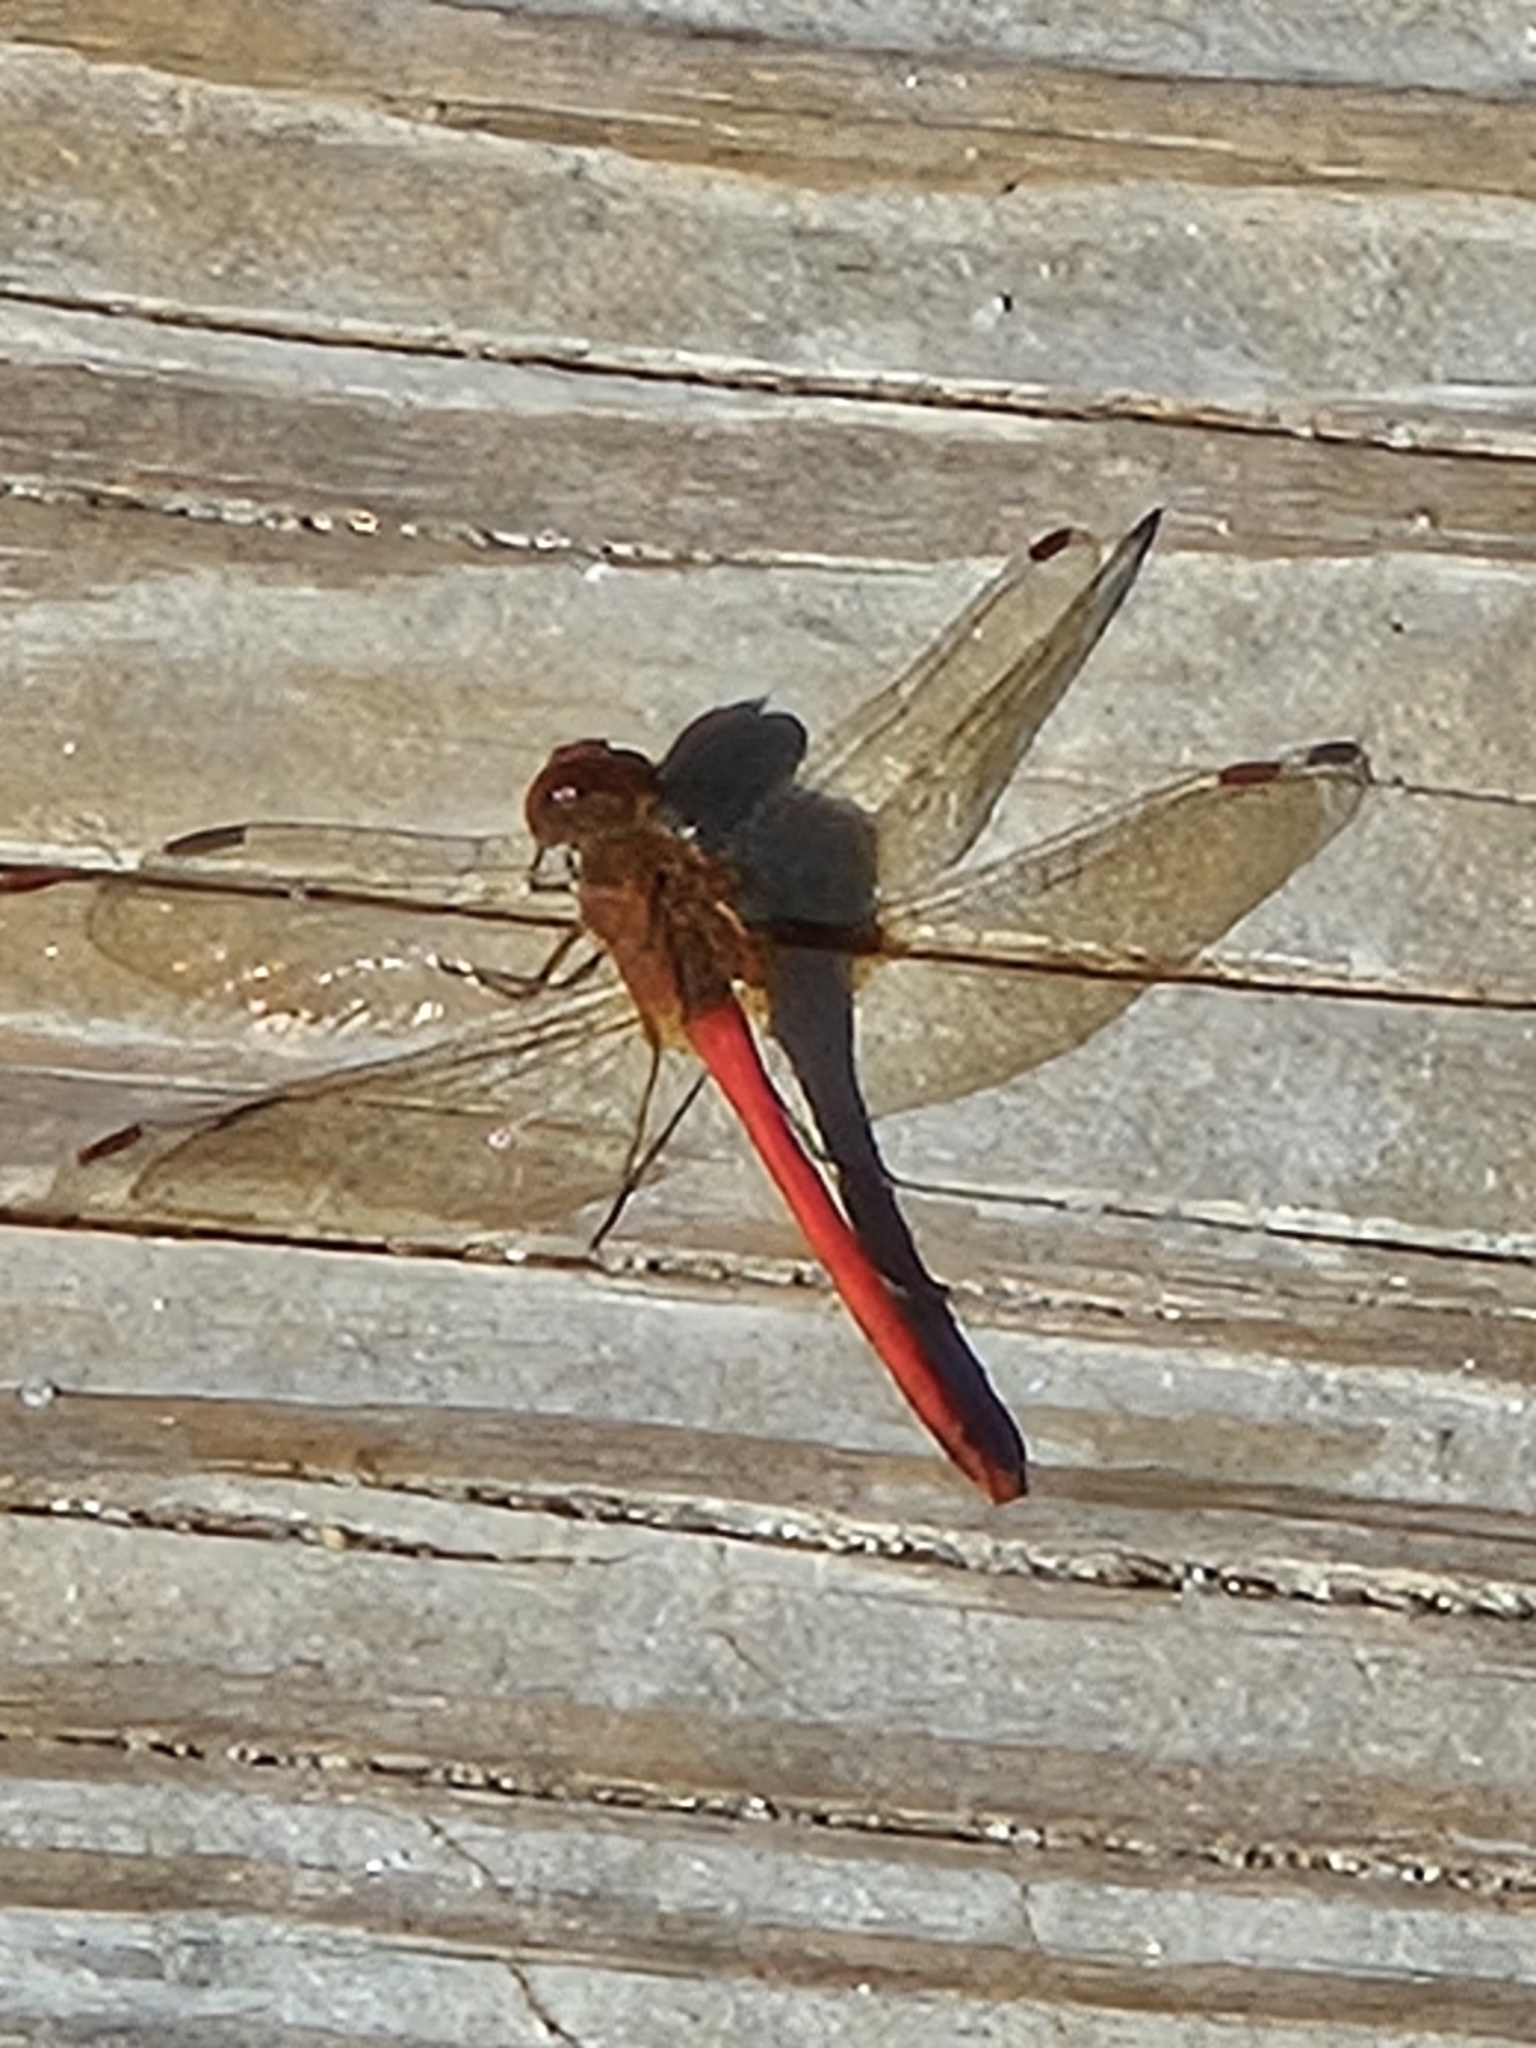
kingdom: Animalia
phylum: Arthropoda
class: Insecta
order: Odonata
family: Libellulidae
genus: Sympetrum
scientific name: Sympetrum vicinum
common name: Autumn meadowhawk
